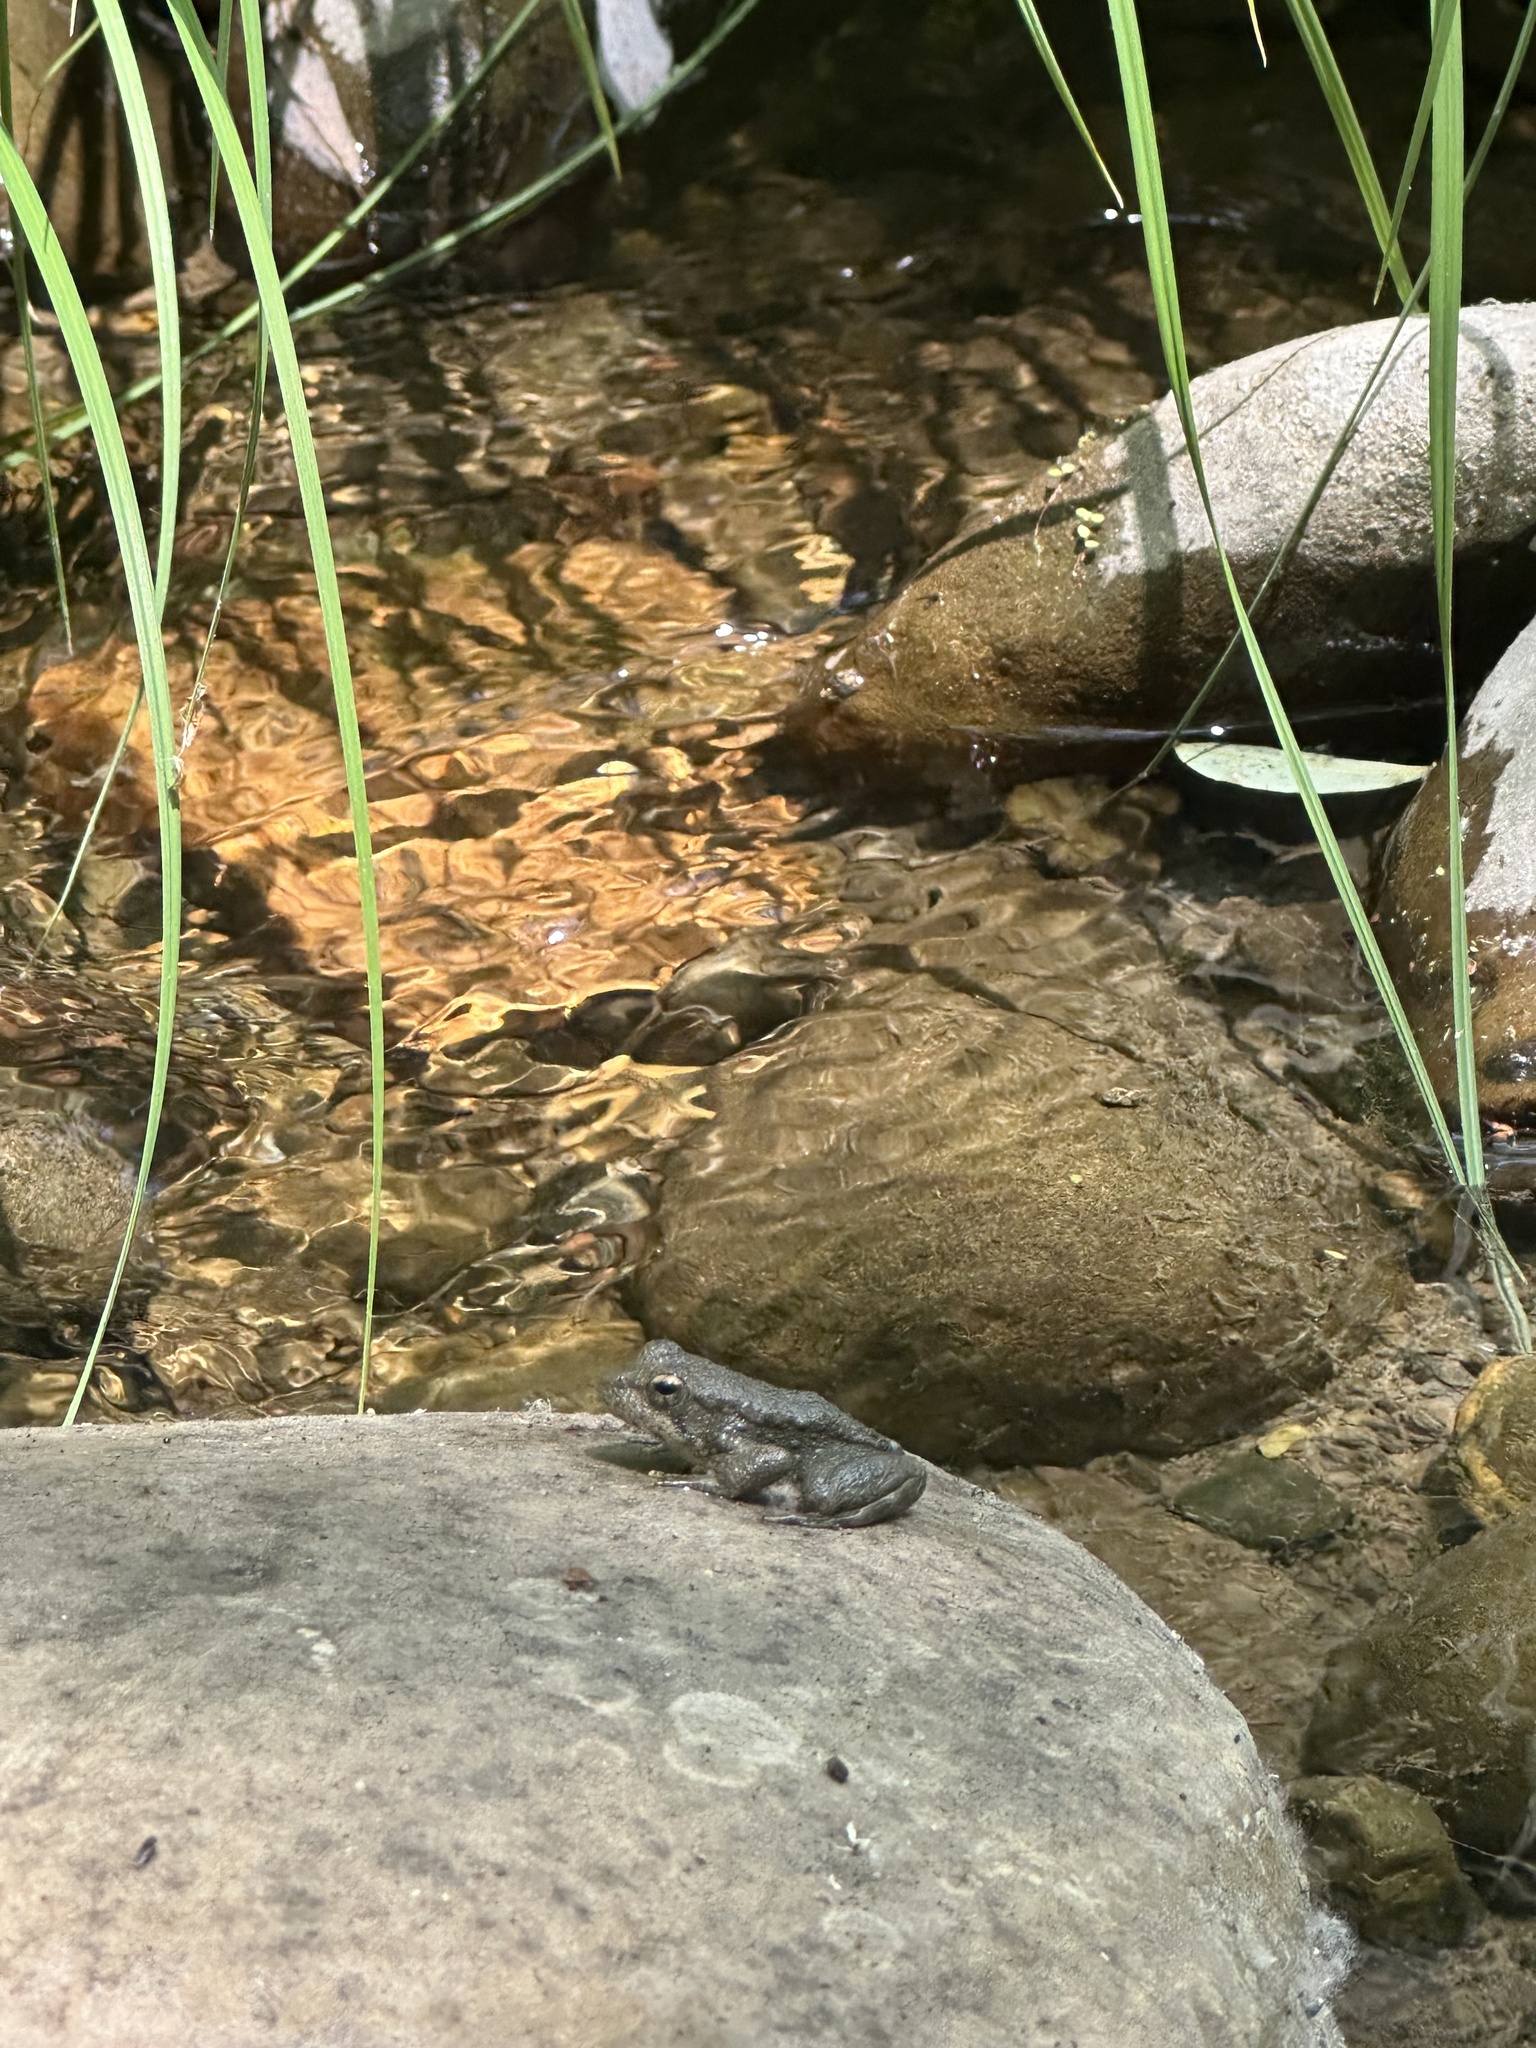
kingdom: Animalia
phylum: Chordata
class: Amphibia
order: Anura
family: Ranidae
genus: Rana
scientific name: Rana boylii
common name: Foothill yellow-legged frog
